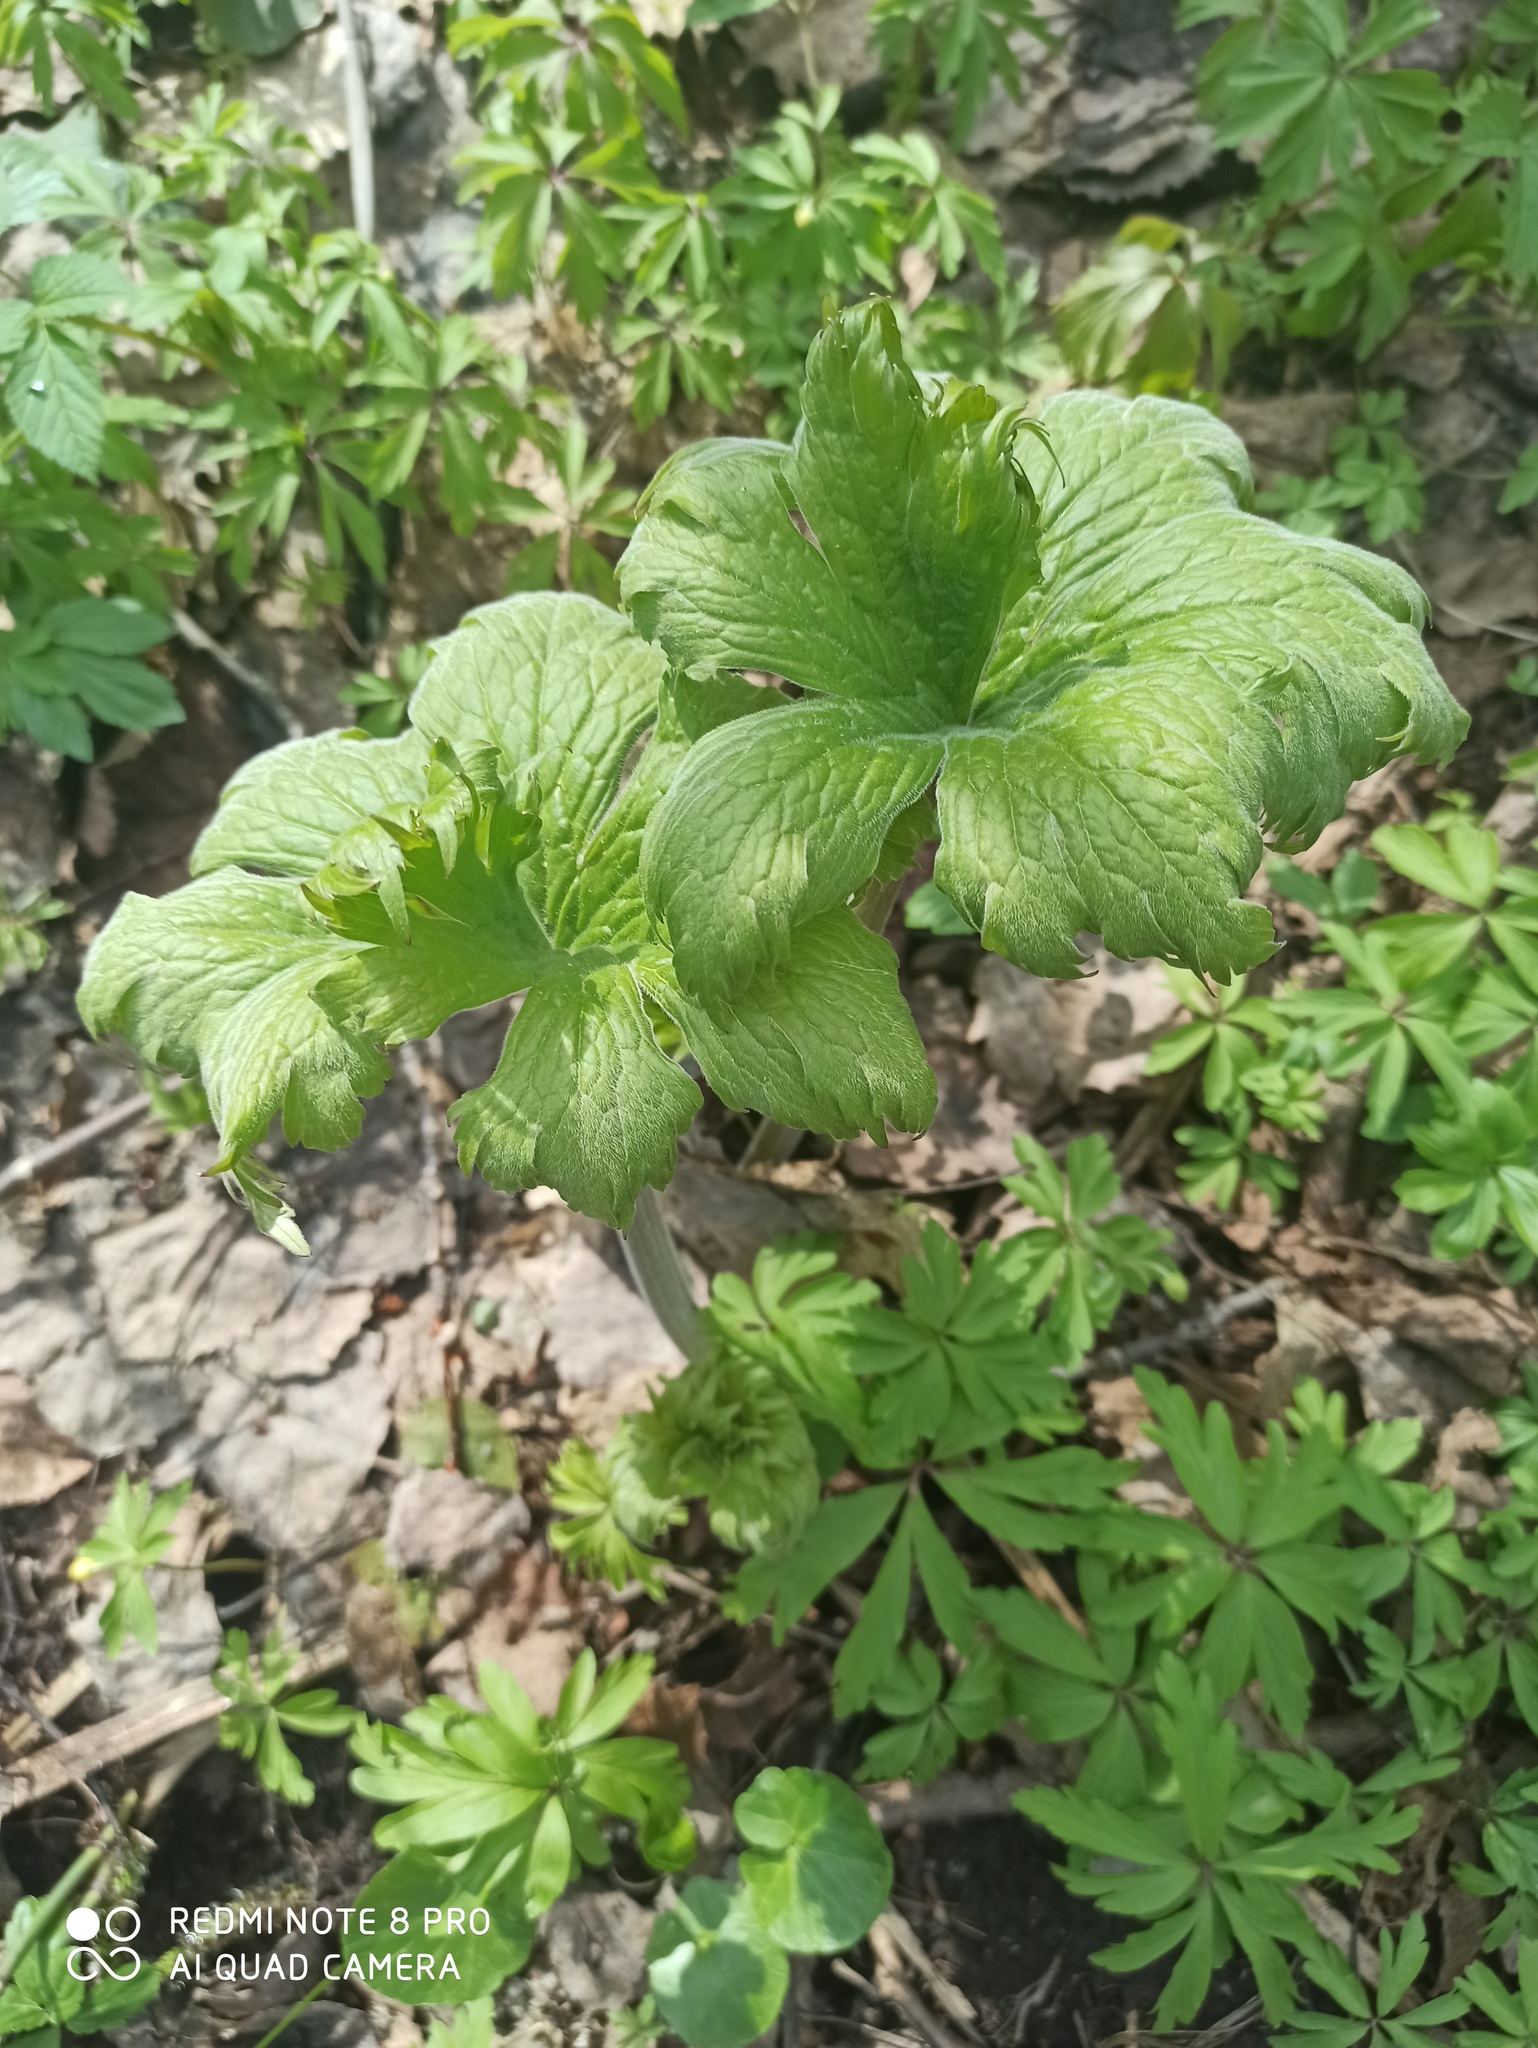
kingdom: Plantae
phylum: Tracheophyta
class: Magnoliopsida
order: Ranunculales
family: Ranunculaceae
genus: Aconitum
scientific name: Aconitum septentrionale
